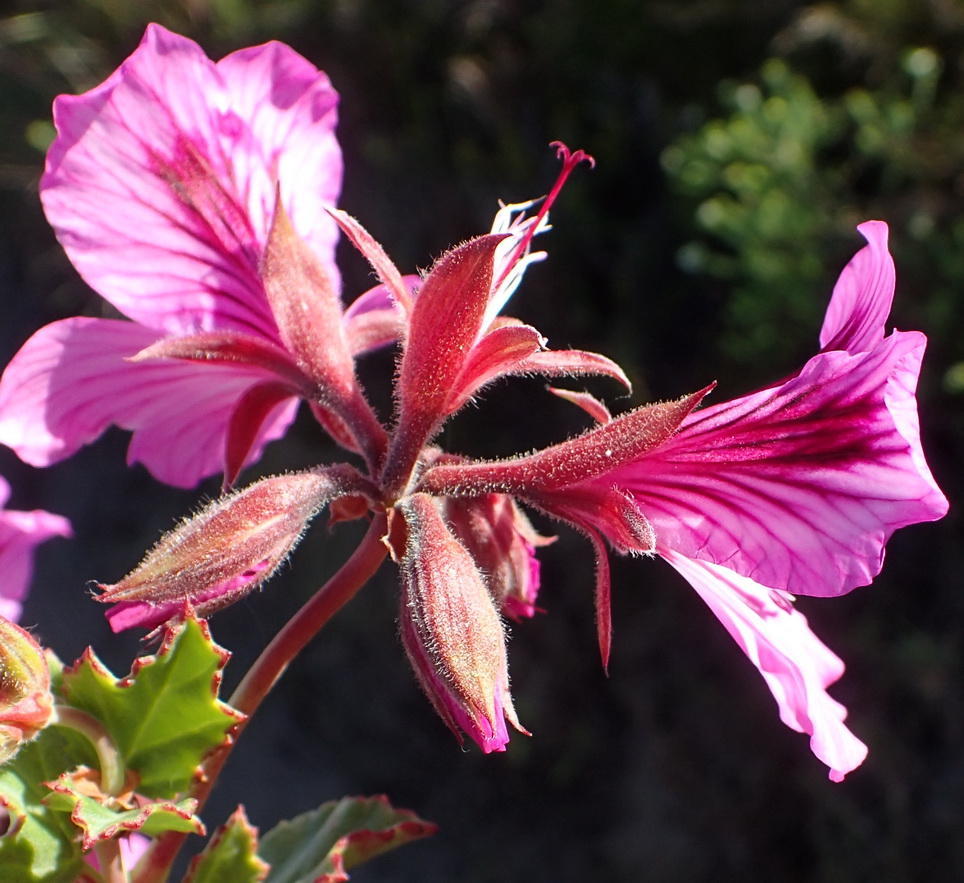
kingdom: Plantae
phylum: Tracheophyta
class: Magnoliopsida
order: Geraniales
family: Geraniaceae
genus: Pelargonium
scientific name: Pelargonium betulinum
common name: Birch-leaf pelargonium
